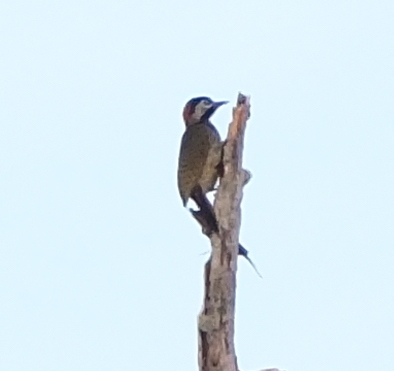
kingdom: Animalia
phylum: Chordata
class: Aves
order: Piciformes
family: Picidae
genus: Colaptes
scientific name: Colaptes punctigula
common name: Spot-breasted woodpecker
